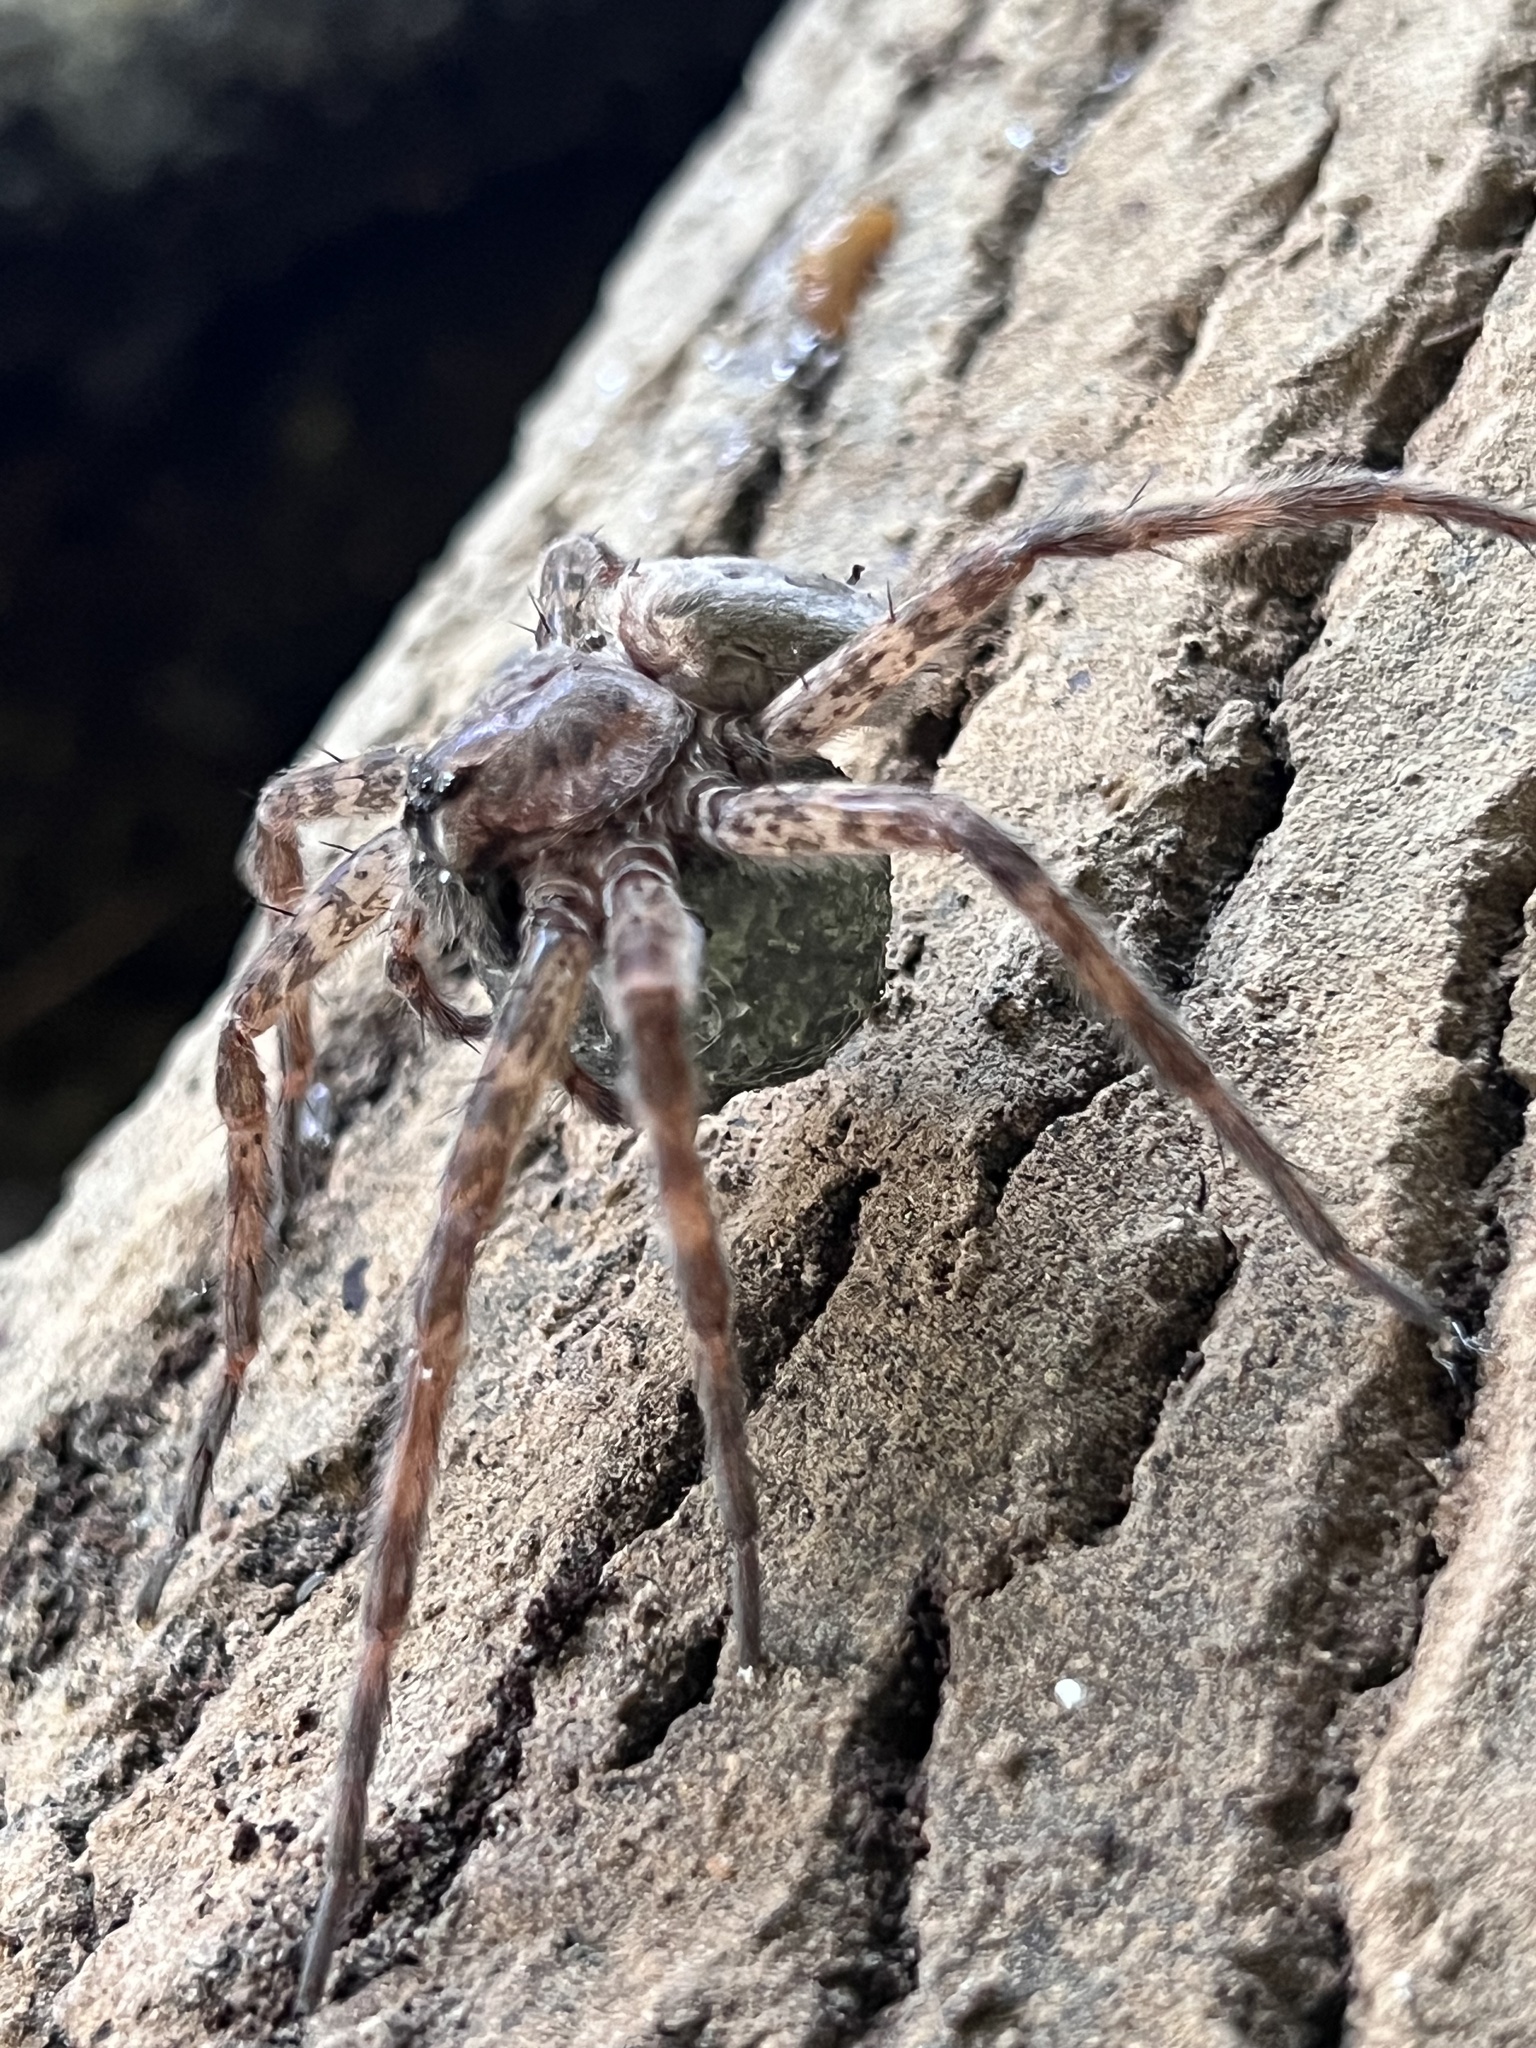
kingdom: Animalia
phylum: Arthropoda
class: Arachnida
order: Araneae
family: Pisauridae
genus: Dolomedes
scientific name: Dolomedes tenebrosus
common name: Dark fishing spider
